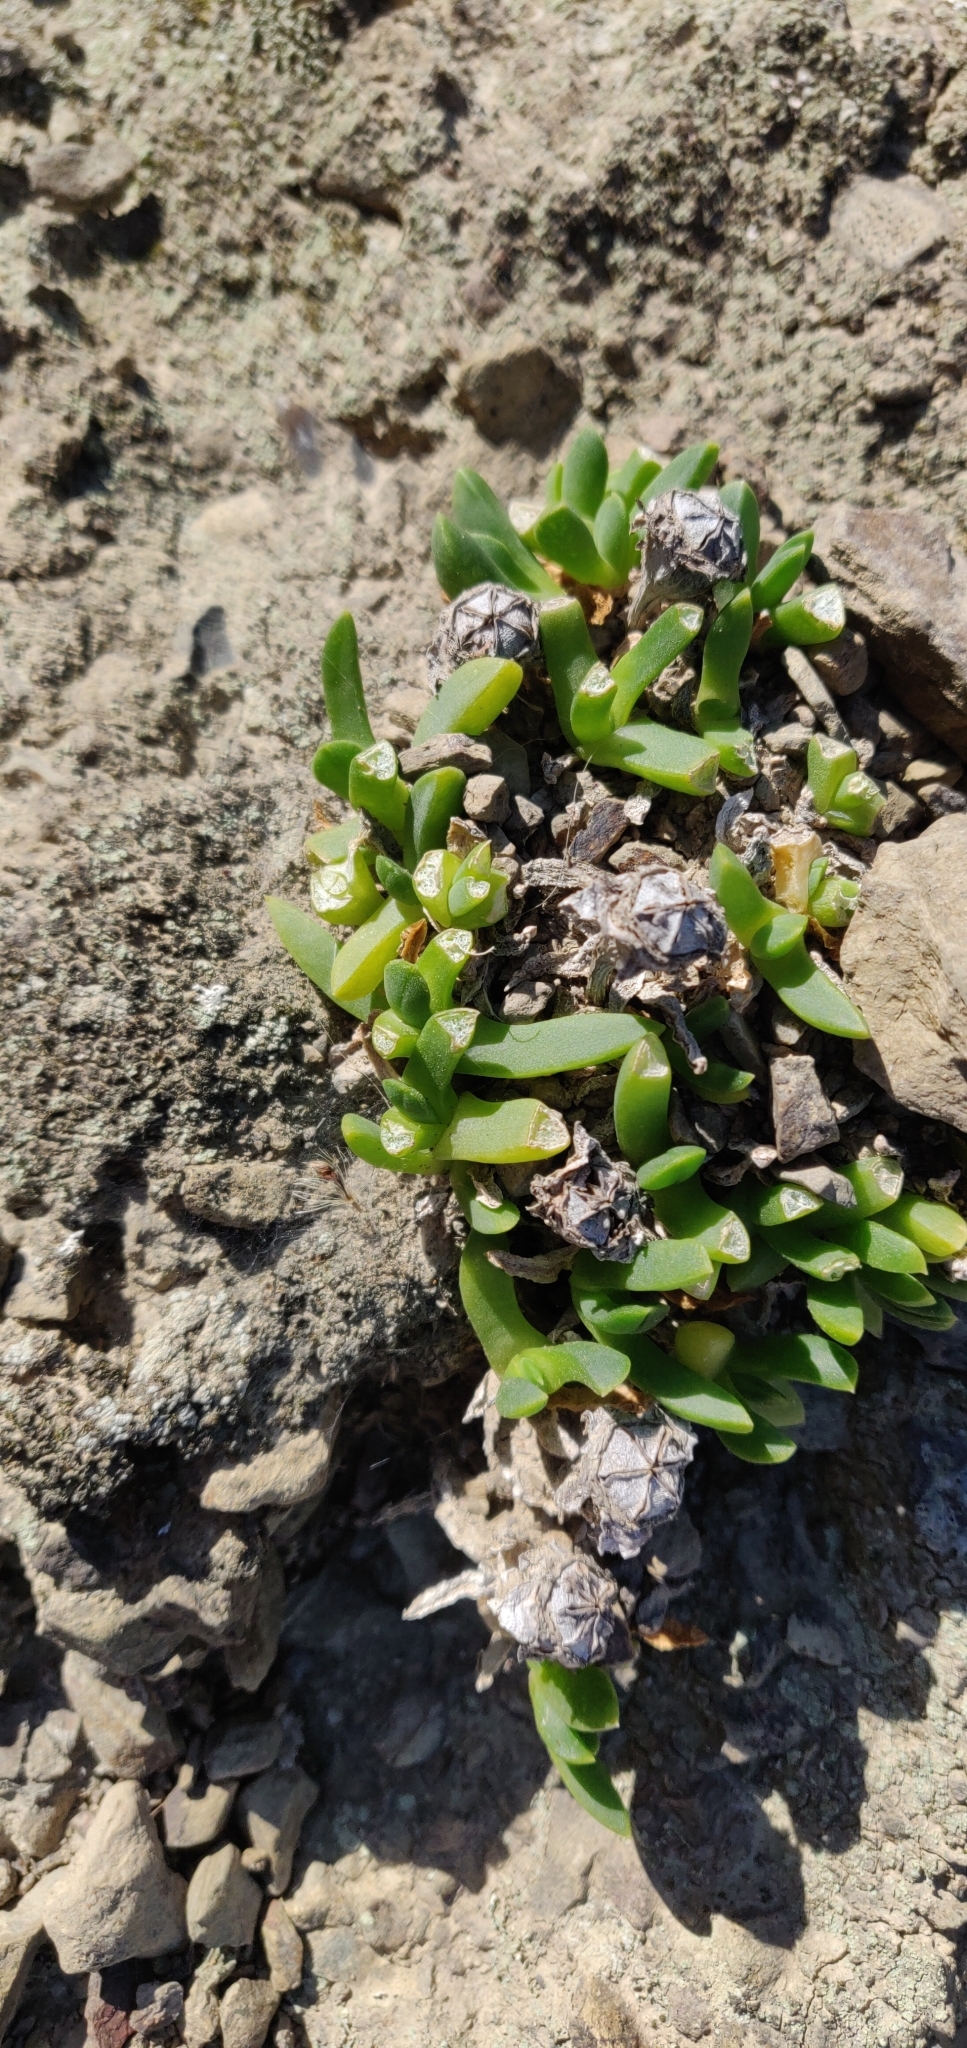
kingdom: Plantae
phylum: Tracheophyta
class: Magnoliopsida
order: Caryophyllales
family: Aizoaceae
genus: Disphyma
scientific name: Disphyma australe
